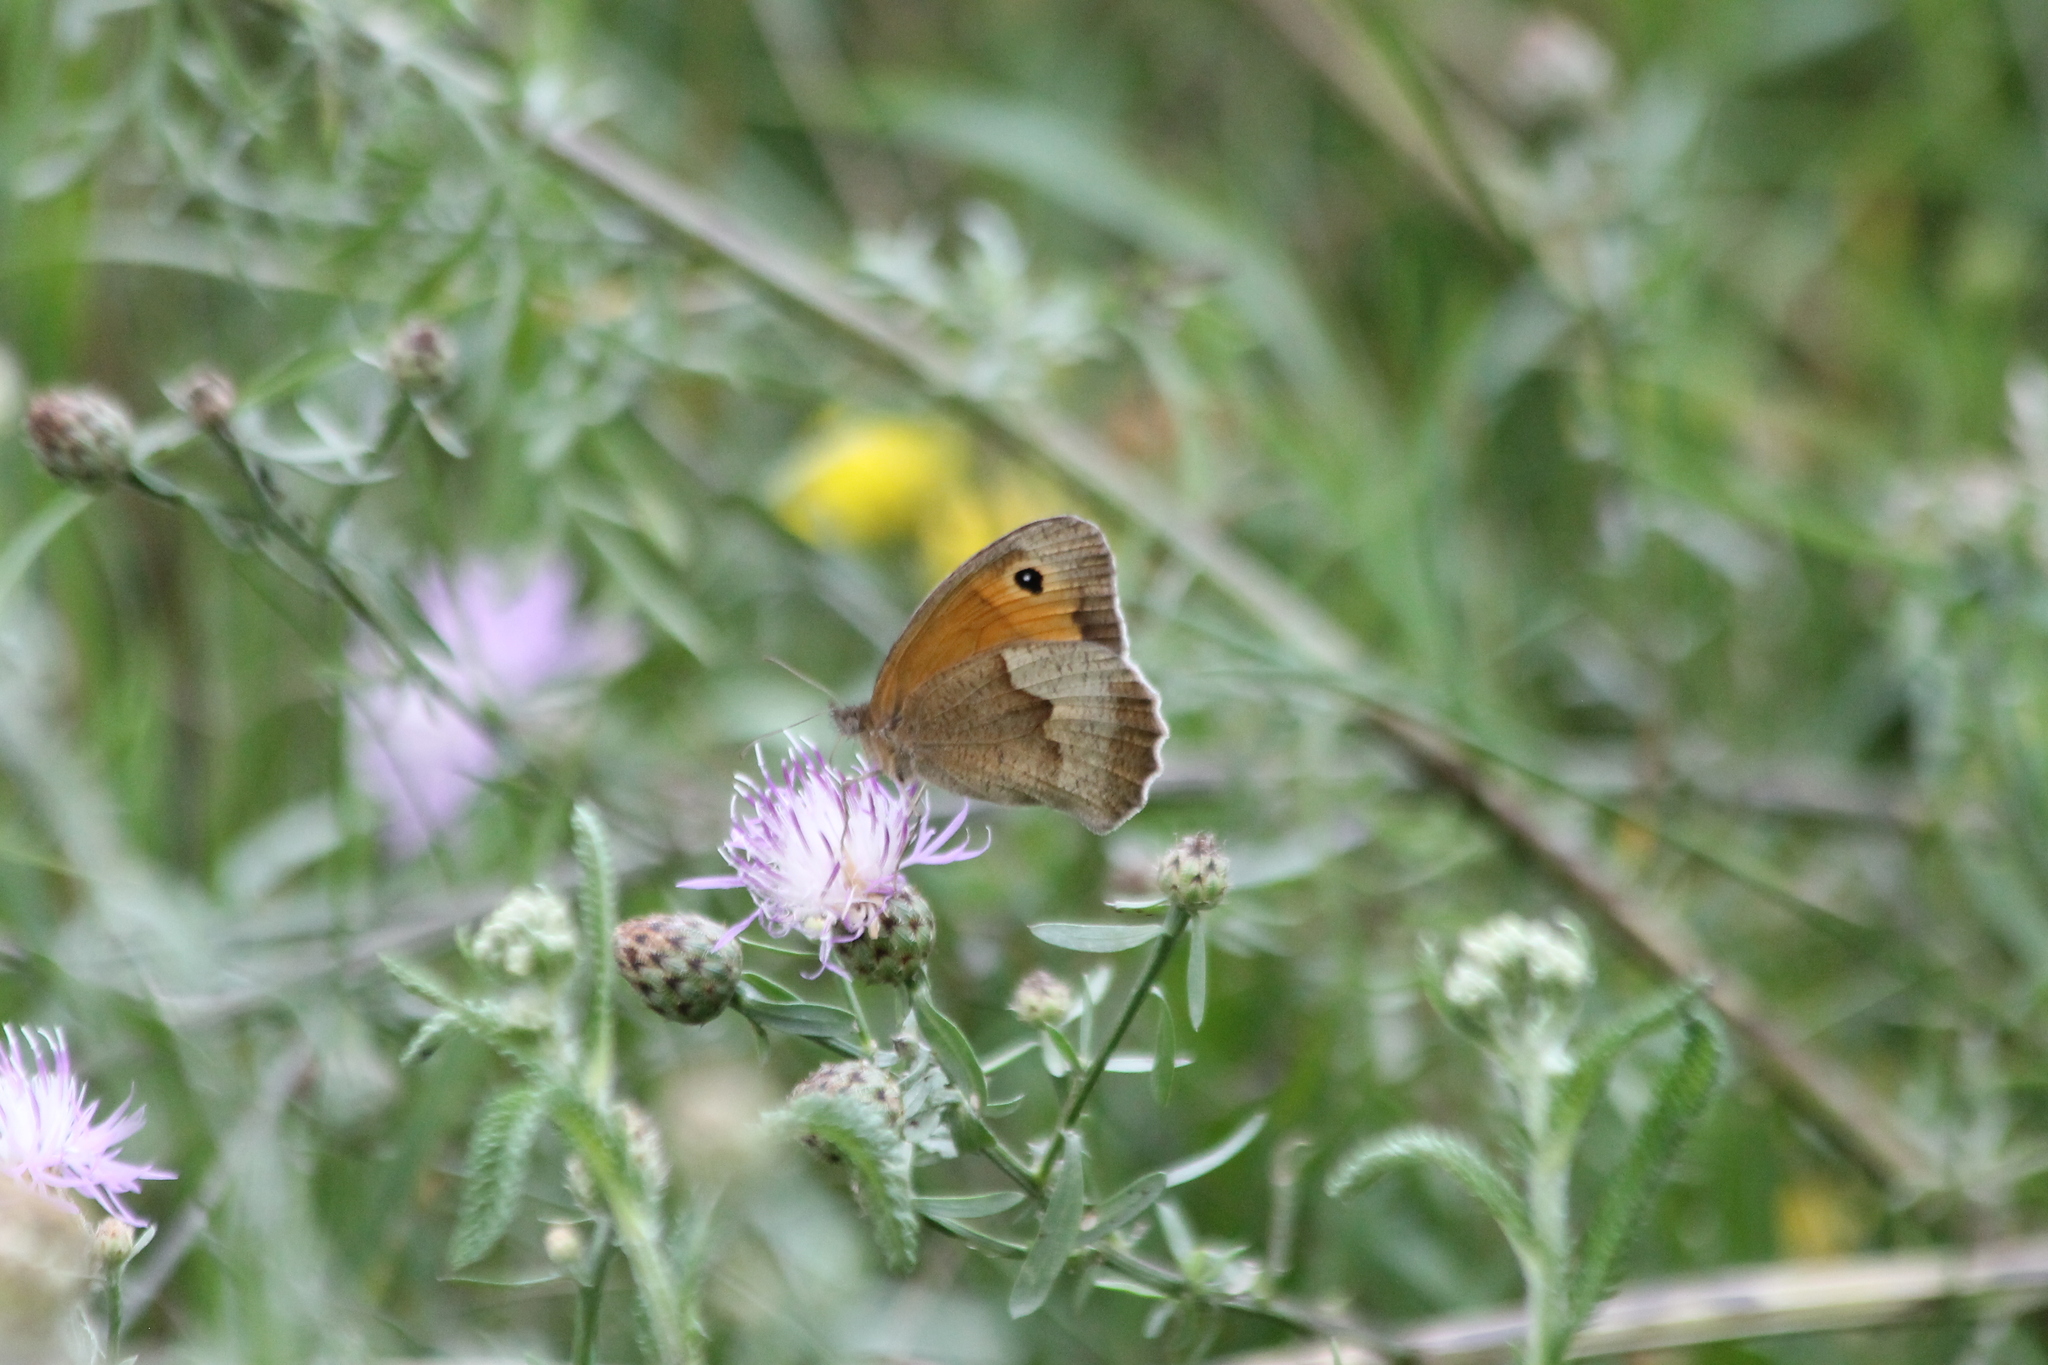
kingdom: Animalia
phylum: Arthropoda
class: Insecta
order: Lepidoptera
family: Nymphalidae
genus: Maniola
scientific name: Maniola jurtina
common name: Meadow brown
